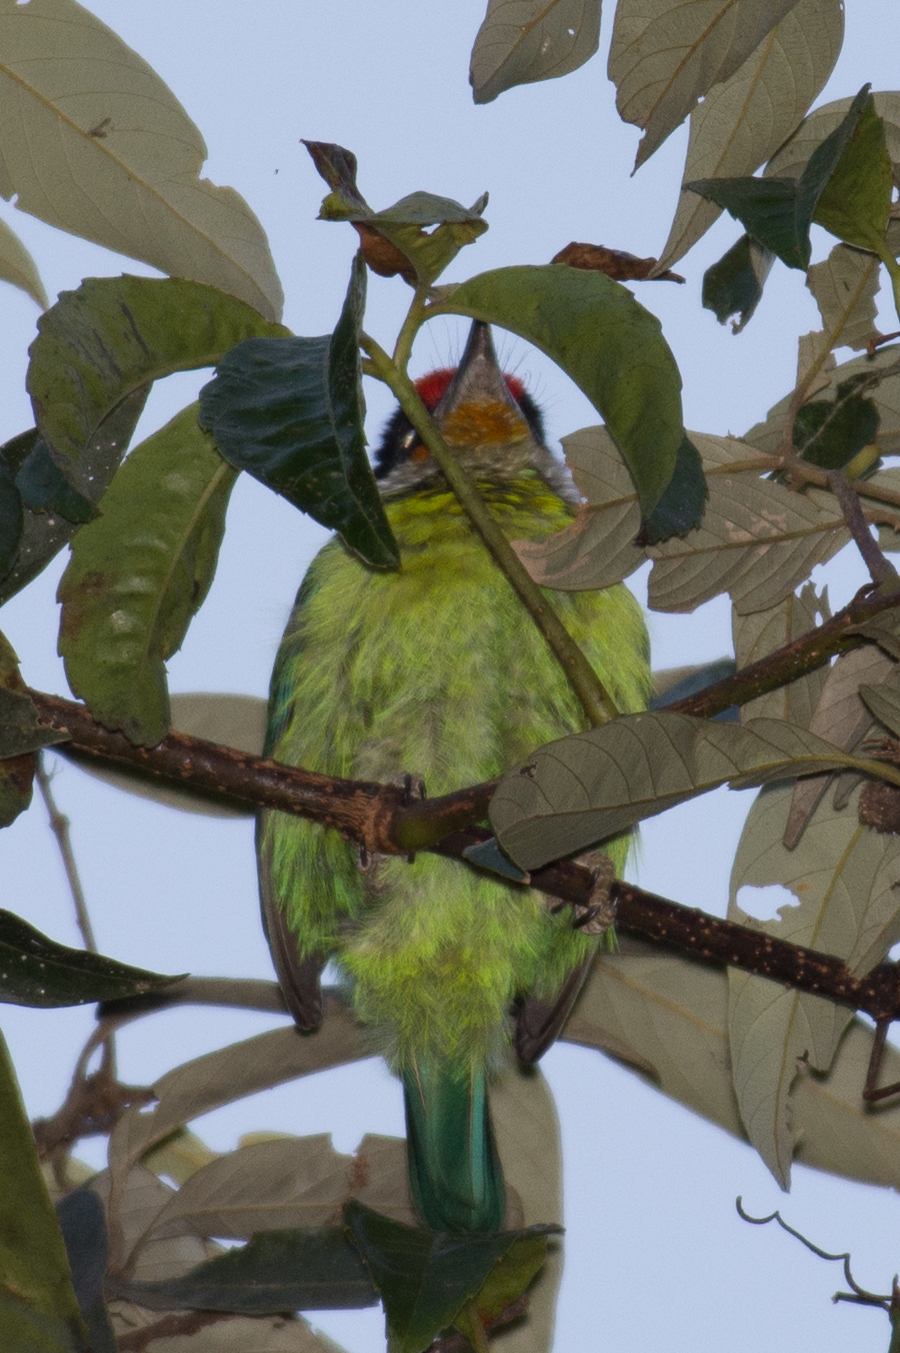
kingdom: Animalia
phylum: Chordata
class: Aves
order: Piciformes
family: Megalaimidae
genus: Psilopogon
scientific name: Psilopogon franklinii
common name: Golden-throated barbet
